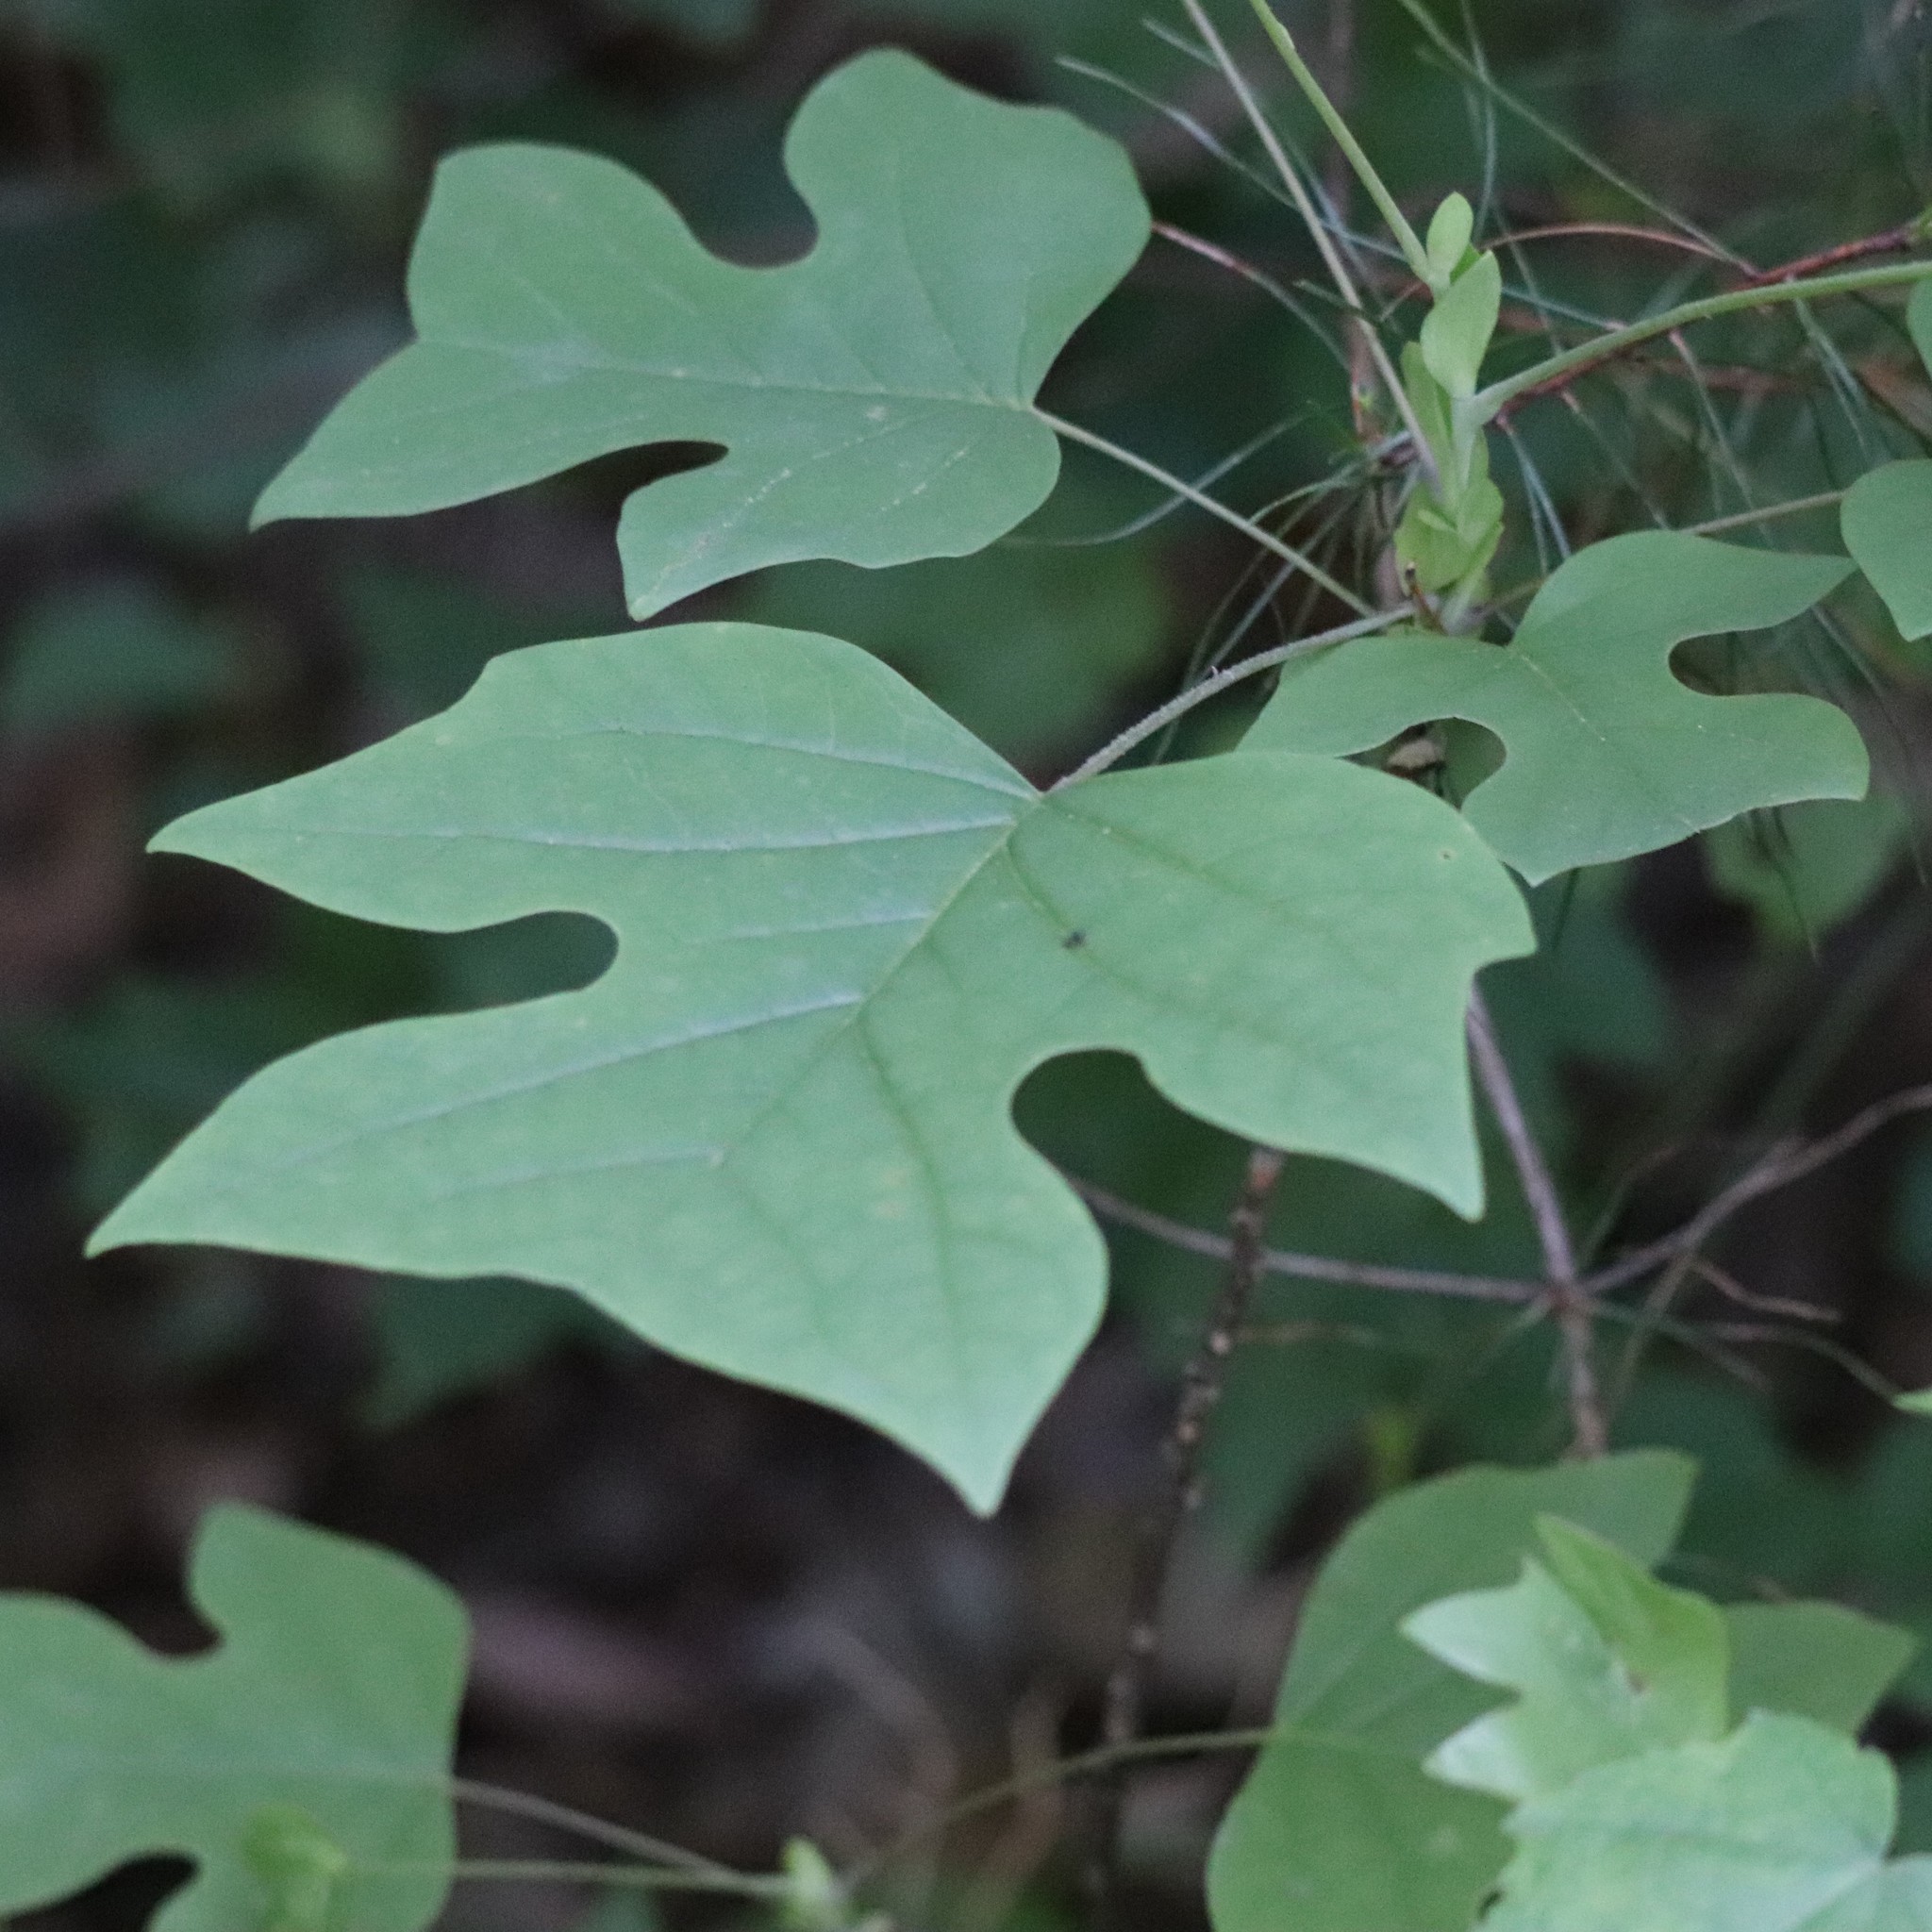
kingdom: Plantae
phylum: Tracheophyta
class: Magnoliopsida
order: Magnoliales
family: Magnoliaceae
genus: Liriodendron
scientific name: Liriodendron tulipifera
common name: Tulip tree
